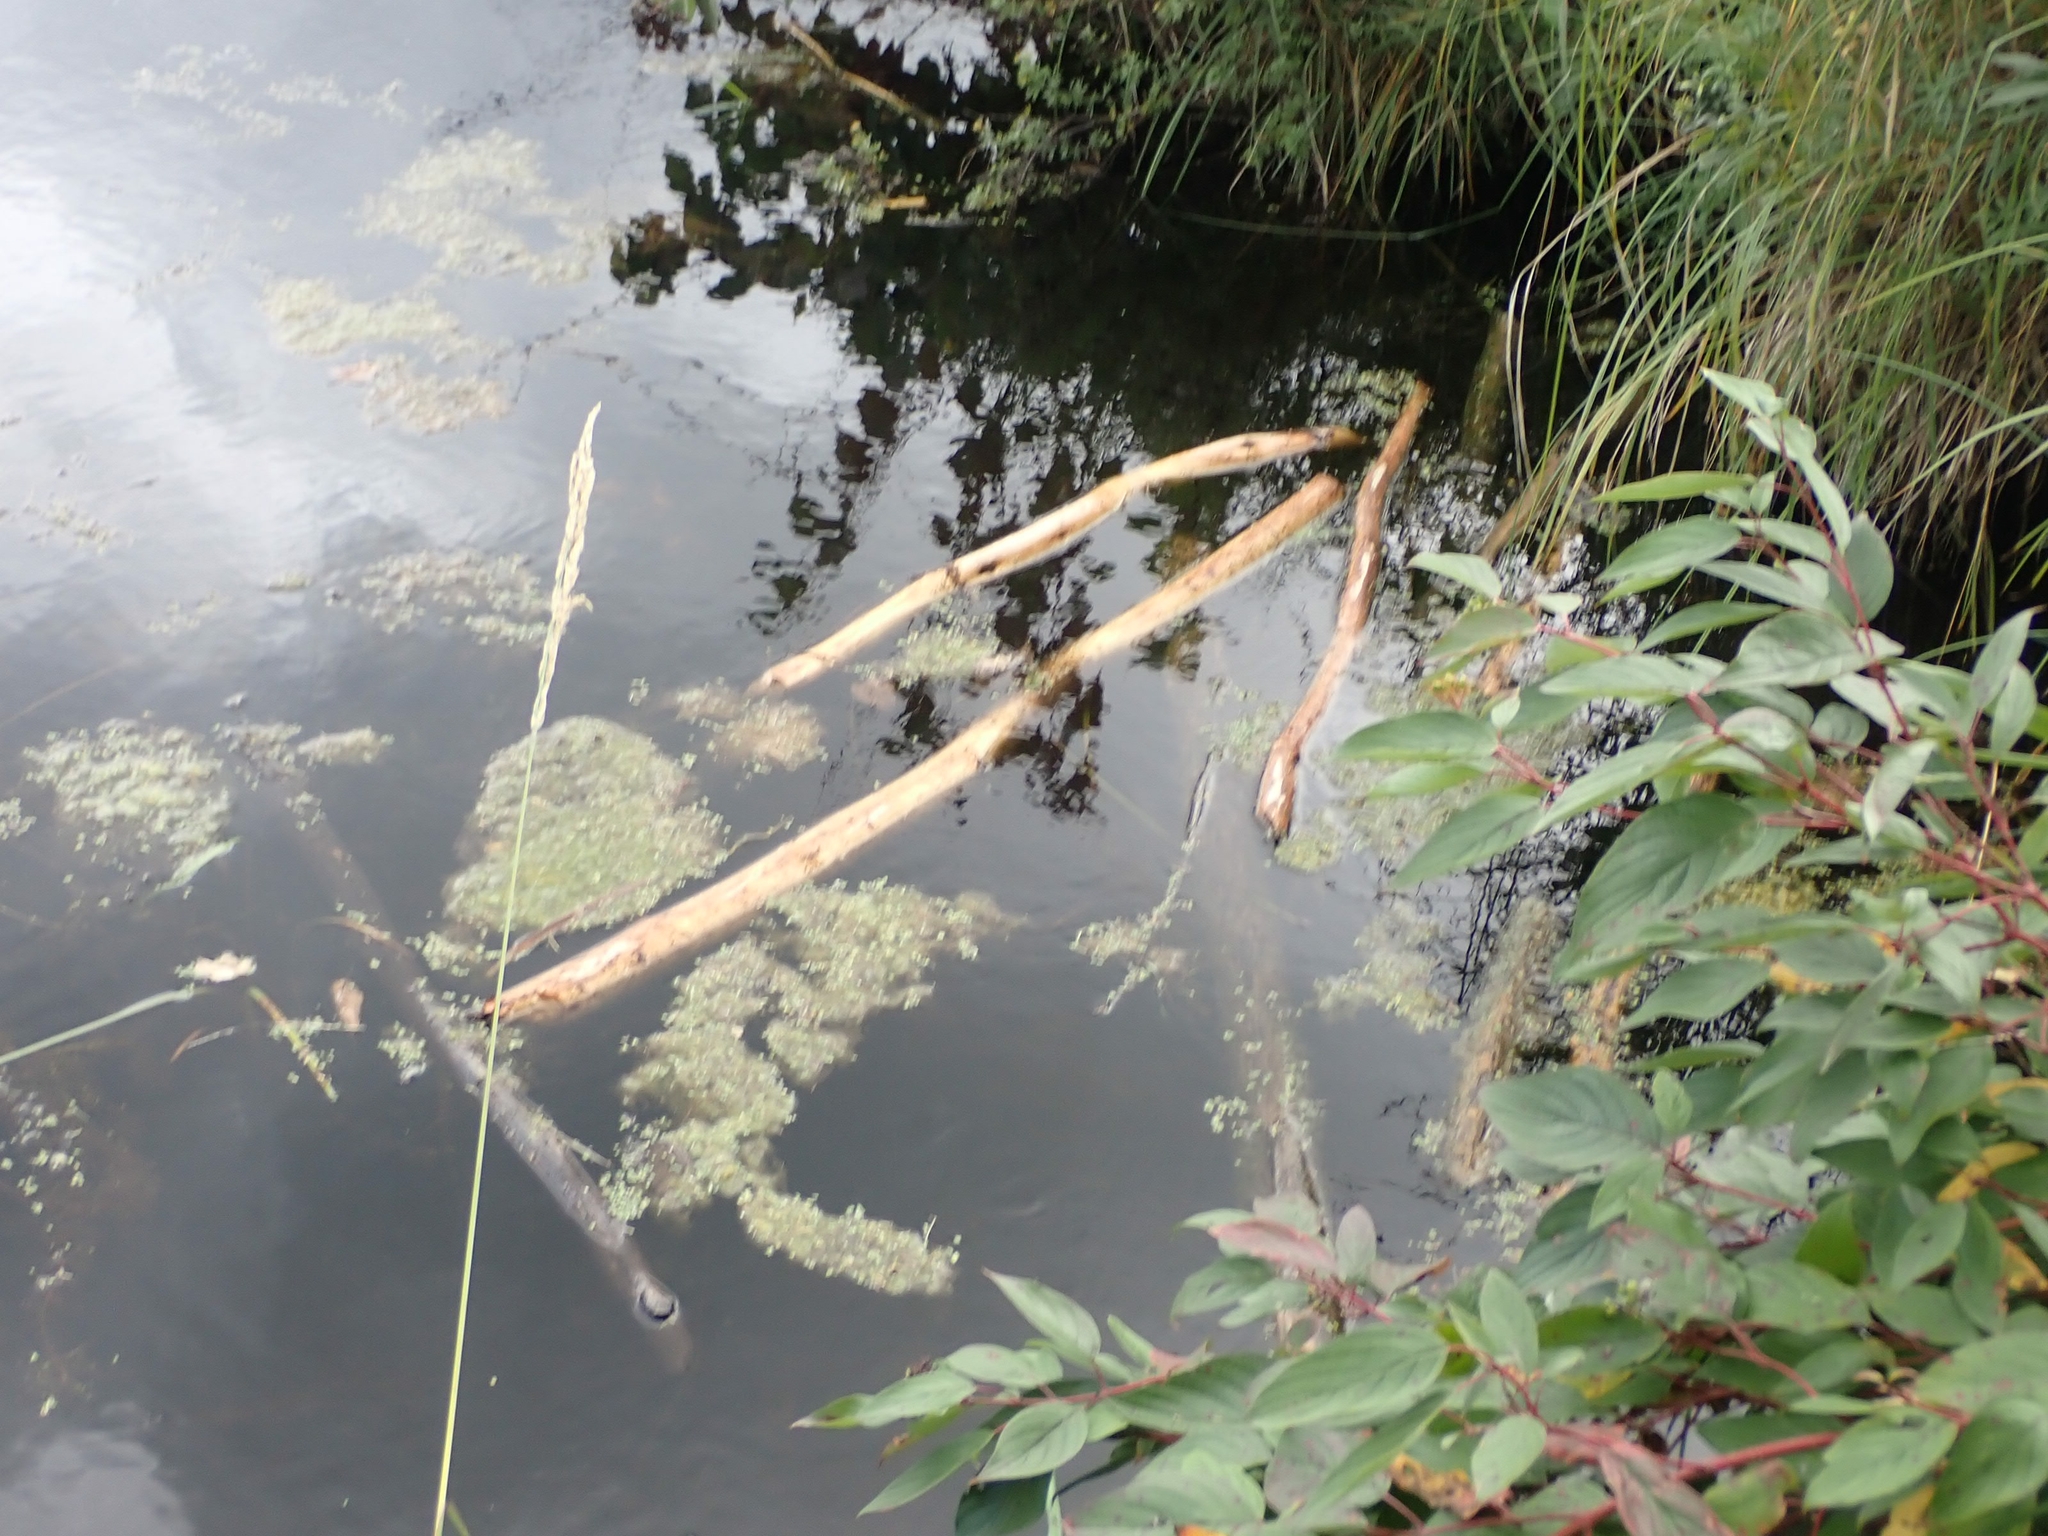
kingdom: Animalia
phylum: Chordata
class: Mammalia
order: Rodentia
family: Castoridae
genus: Castor
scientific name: Castor canadensis
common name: American beaver
